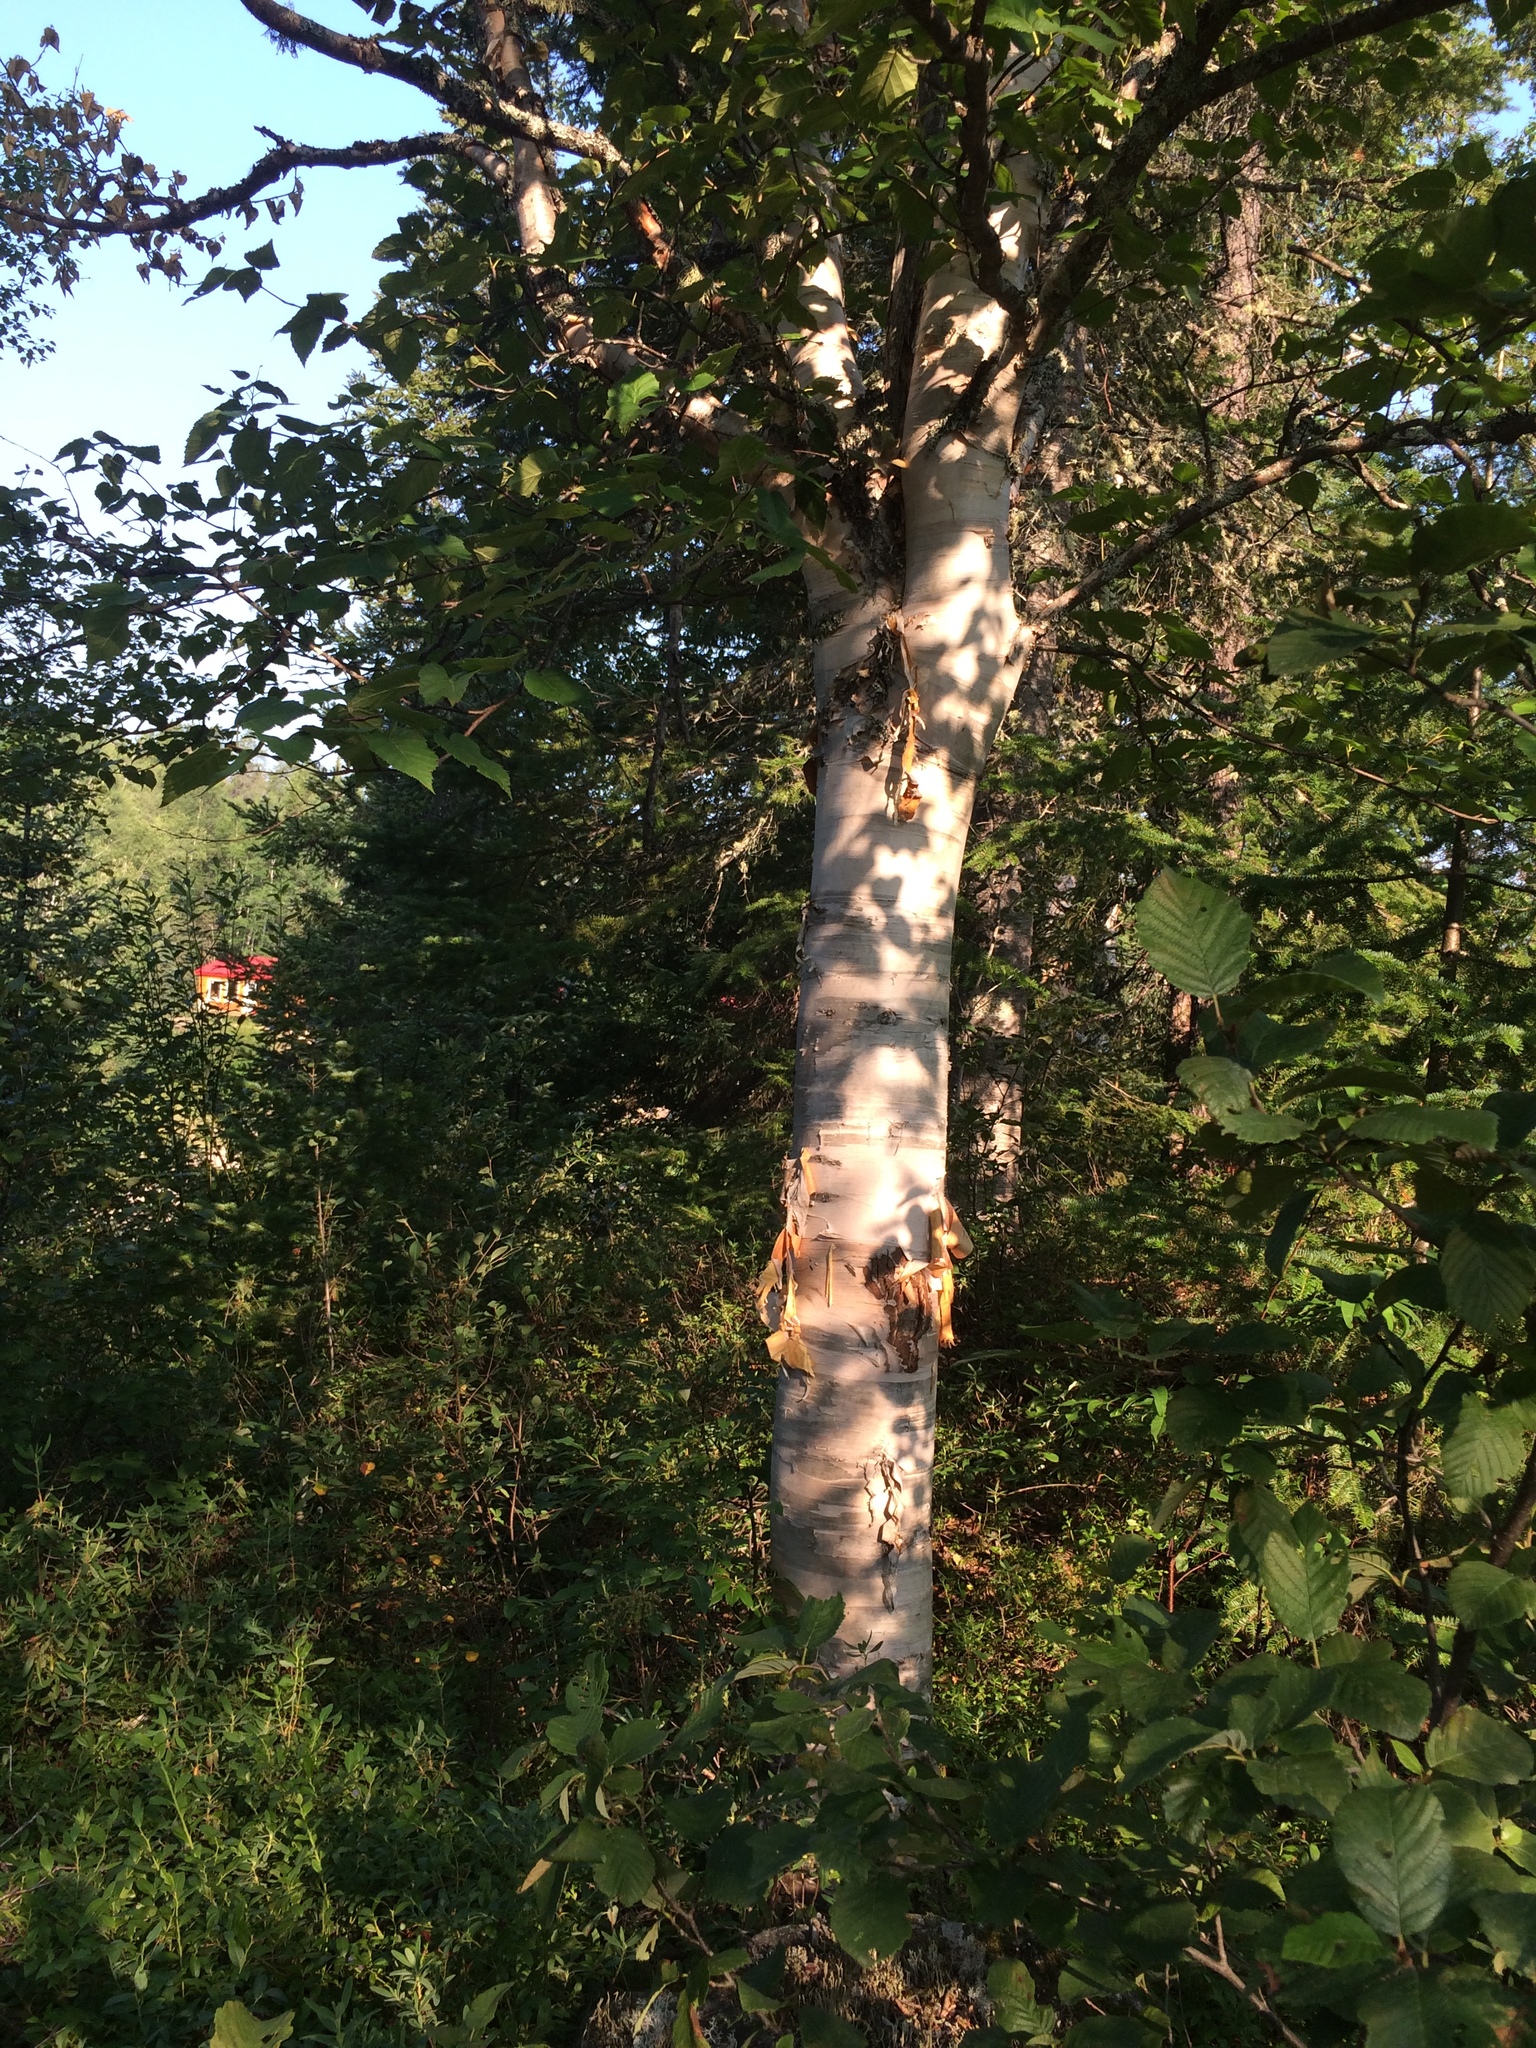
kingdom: Plantae
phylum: Tracheophyta
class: Magnoliopsida
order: Fagales
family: Betulaceae
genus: Betula
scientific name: Betula cordifolia
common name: Mountain white birch
